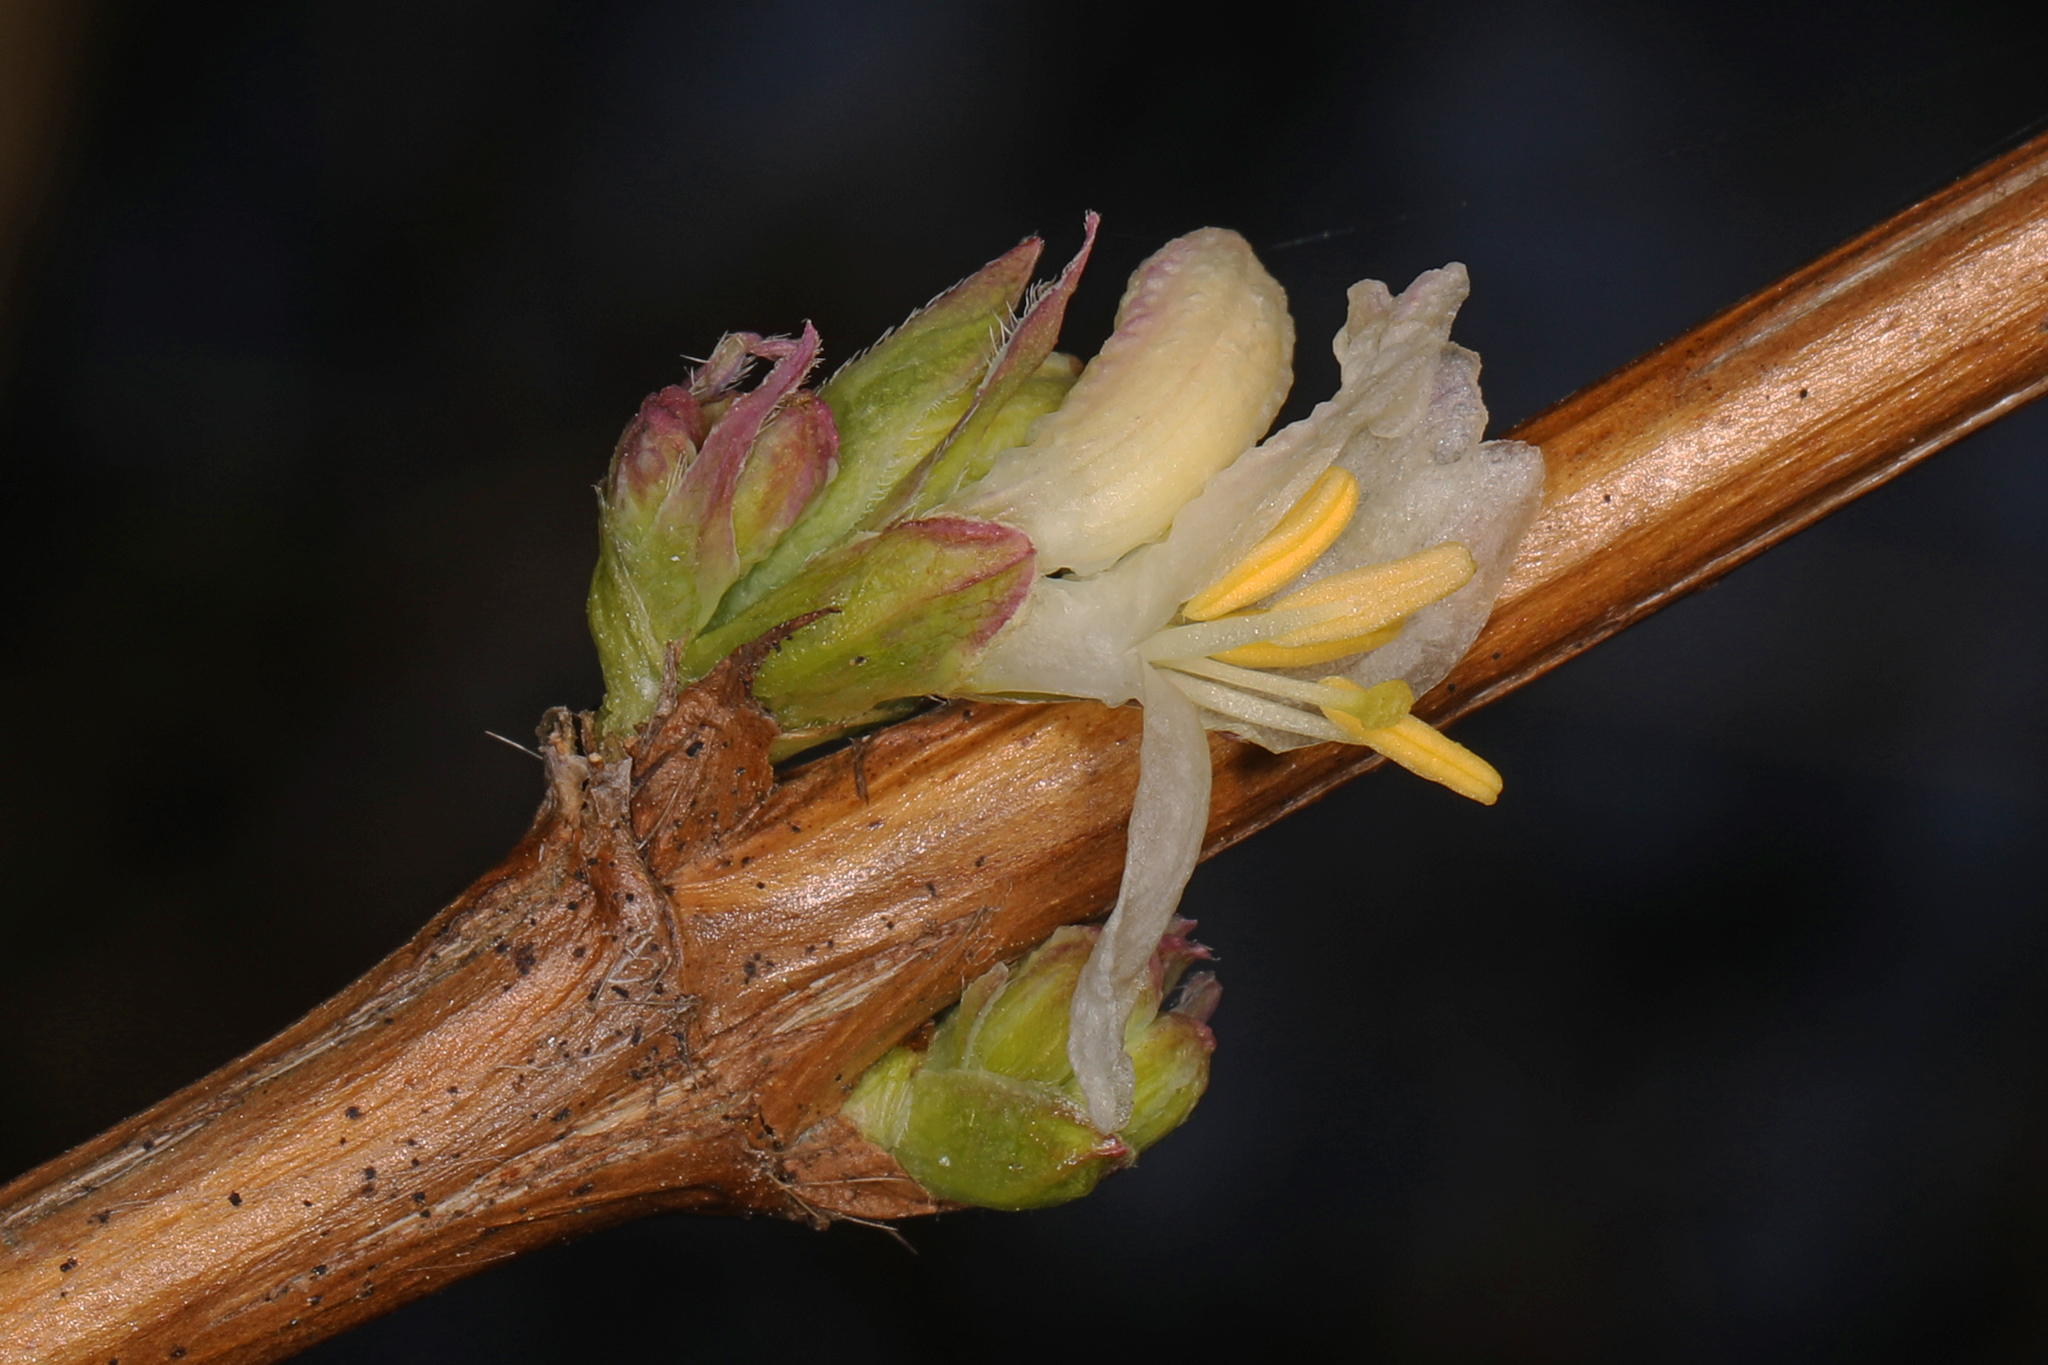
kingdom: Plantae
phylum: Tracheophyta
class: Magnoliopsida
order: Dipsacales
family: Caprifoliaceae
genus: Lonicera
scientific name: Lonicera fragrantissima
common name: Fragrant honeysuckle
